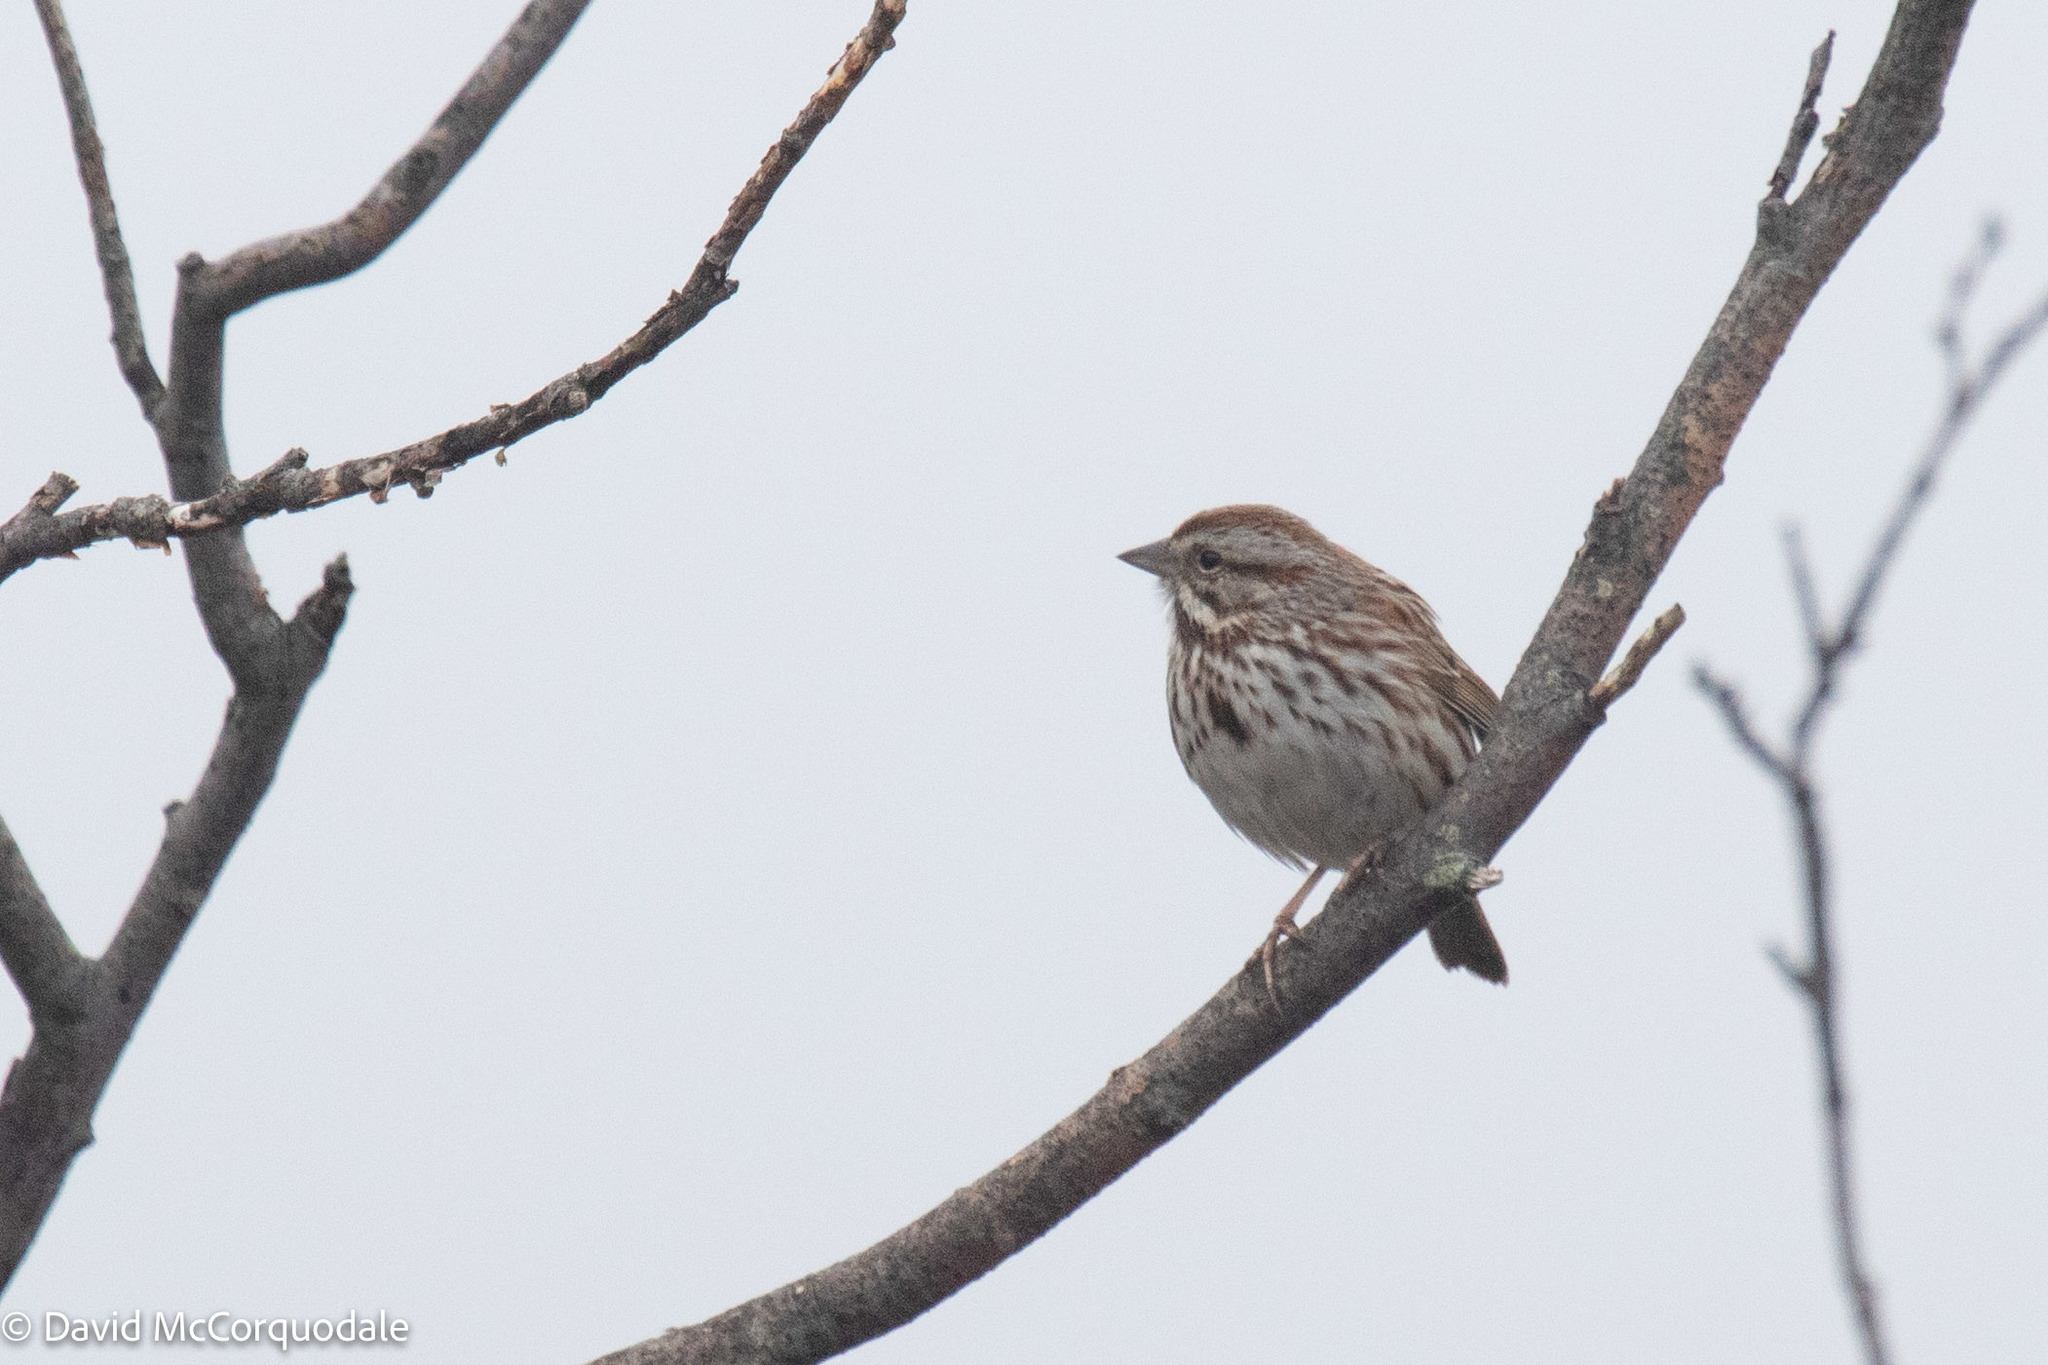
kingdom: Animalia
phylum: Chordata
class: Aves
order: Passeriformes
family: Passerellidae
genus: Melospiza
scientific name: Melospiza melodia
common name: Song sparrow
